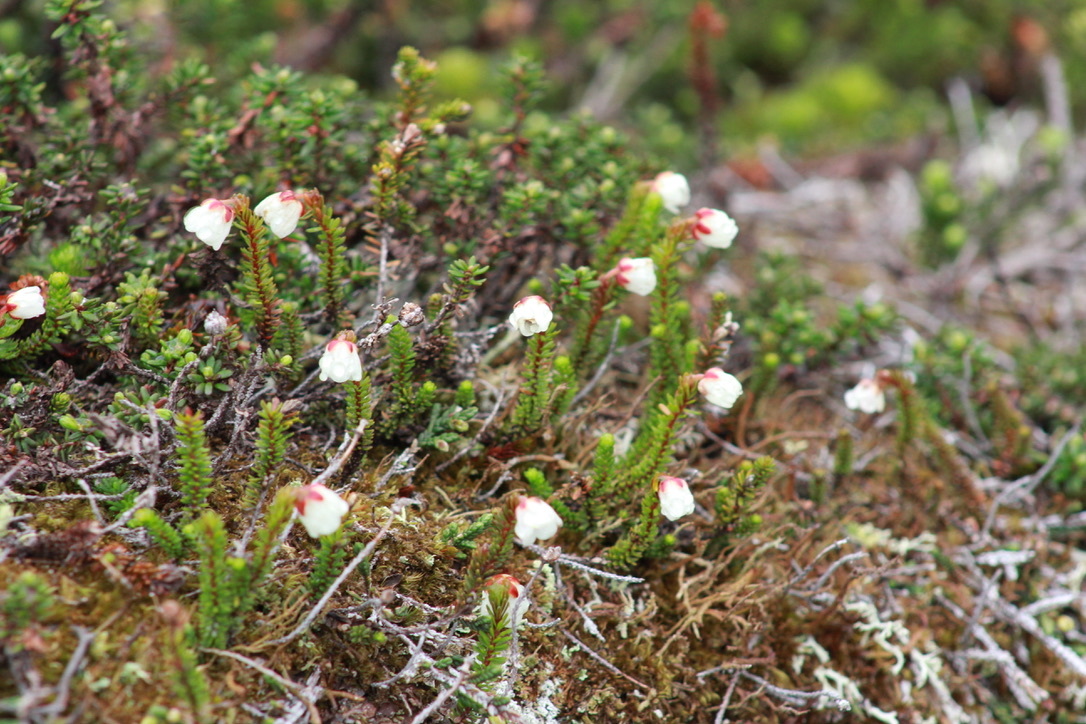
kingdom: Plantae
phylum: Tracheophyta
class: Magnoliopsida
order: Ericales
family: Ericaceae
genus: Harrimanella
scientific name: Harrimanella stelleriana
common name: Alaska bell heather
